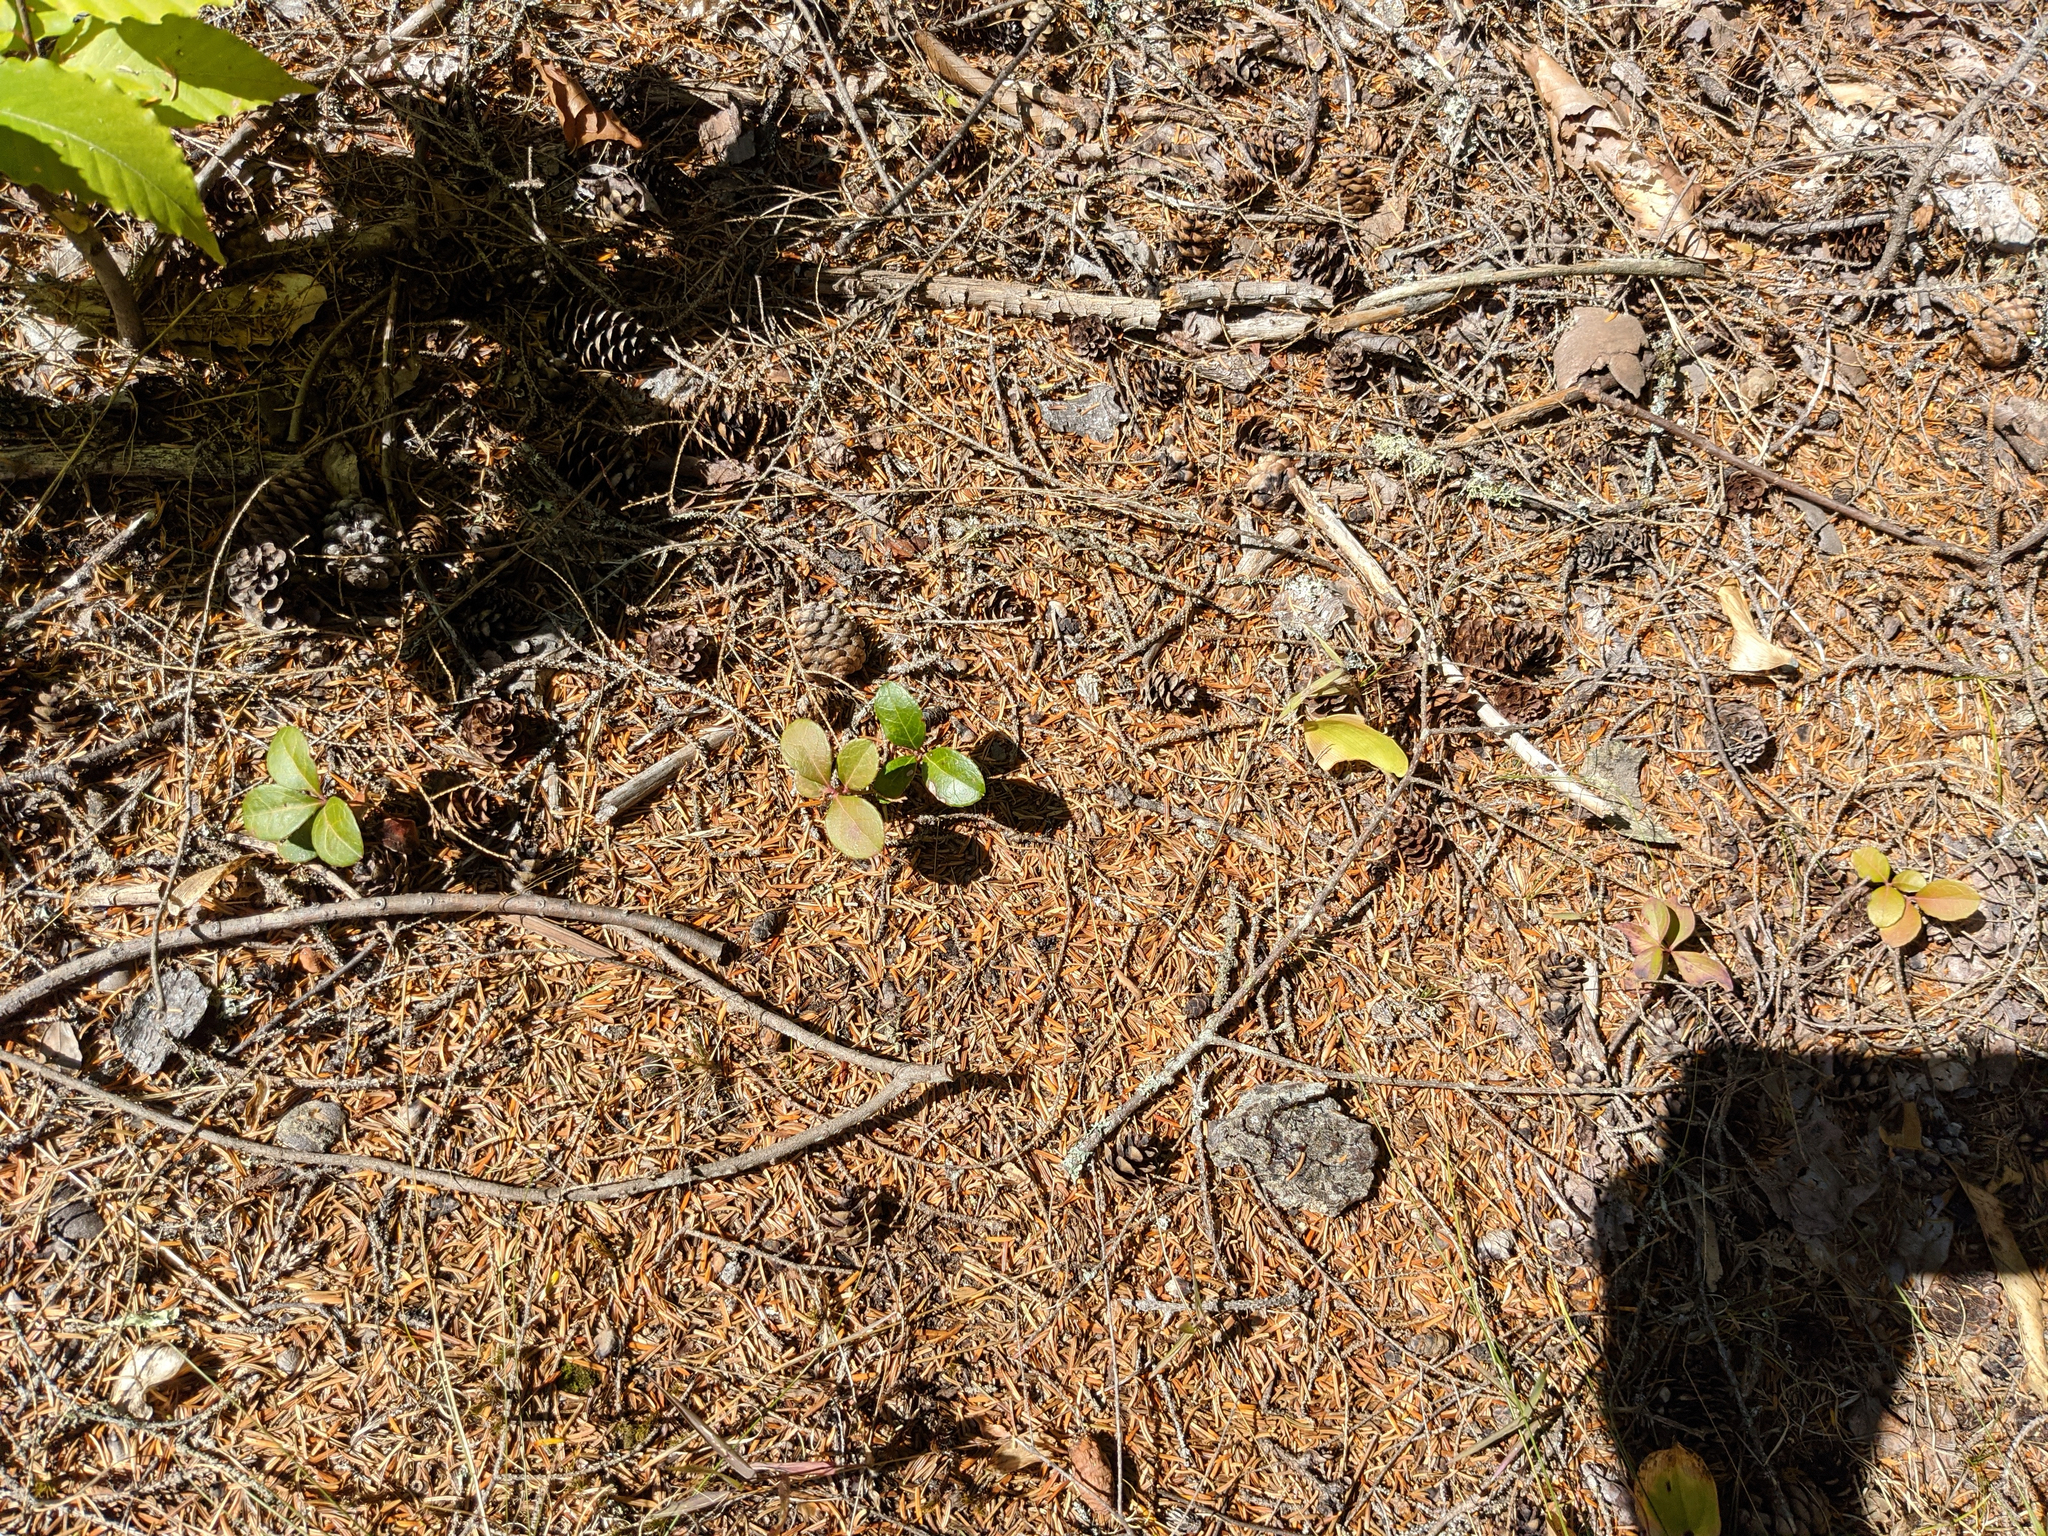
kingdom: Plantae
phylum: Tracheophyta
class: Magnoliopsida
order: Ericales
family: Ericaceae
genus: Gaultheria
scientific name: Gaultheria procumbens
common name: Checkerberry
